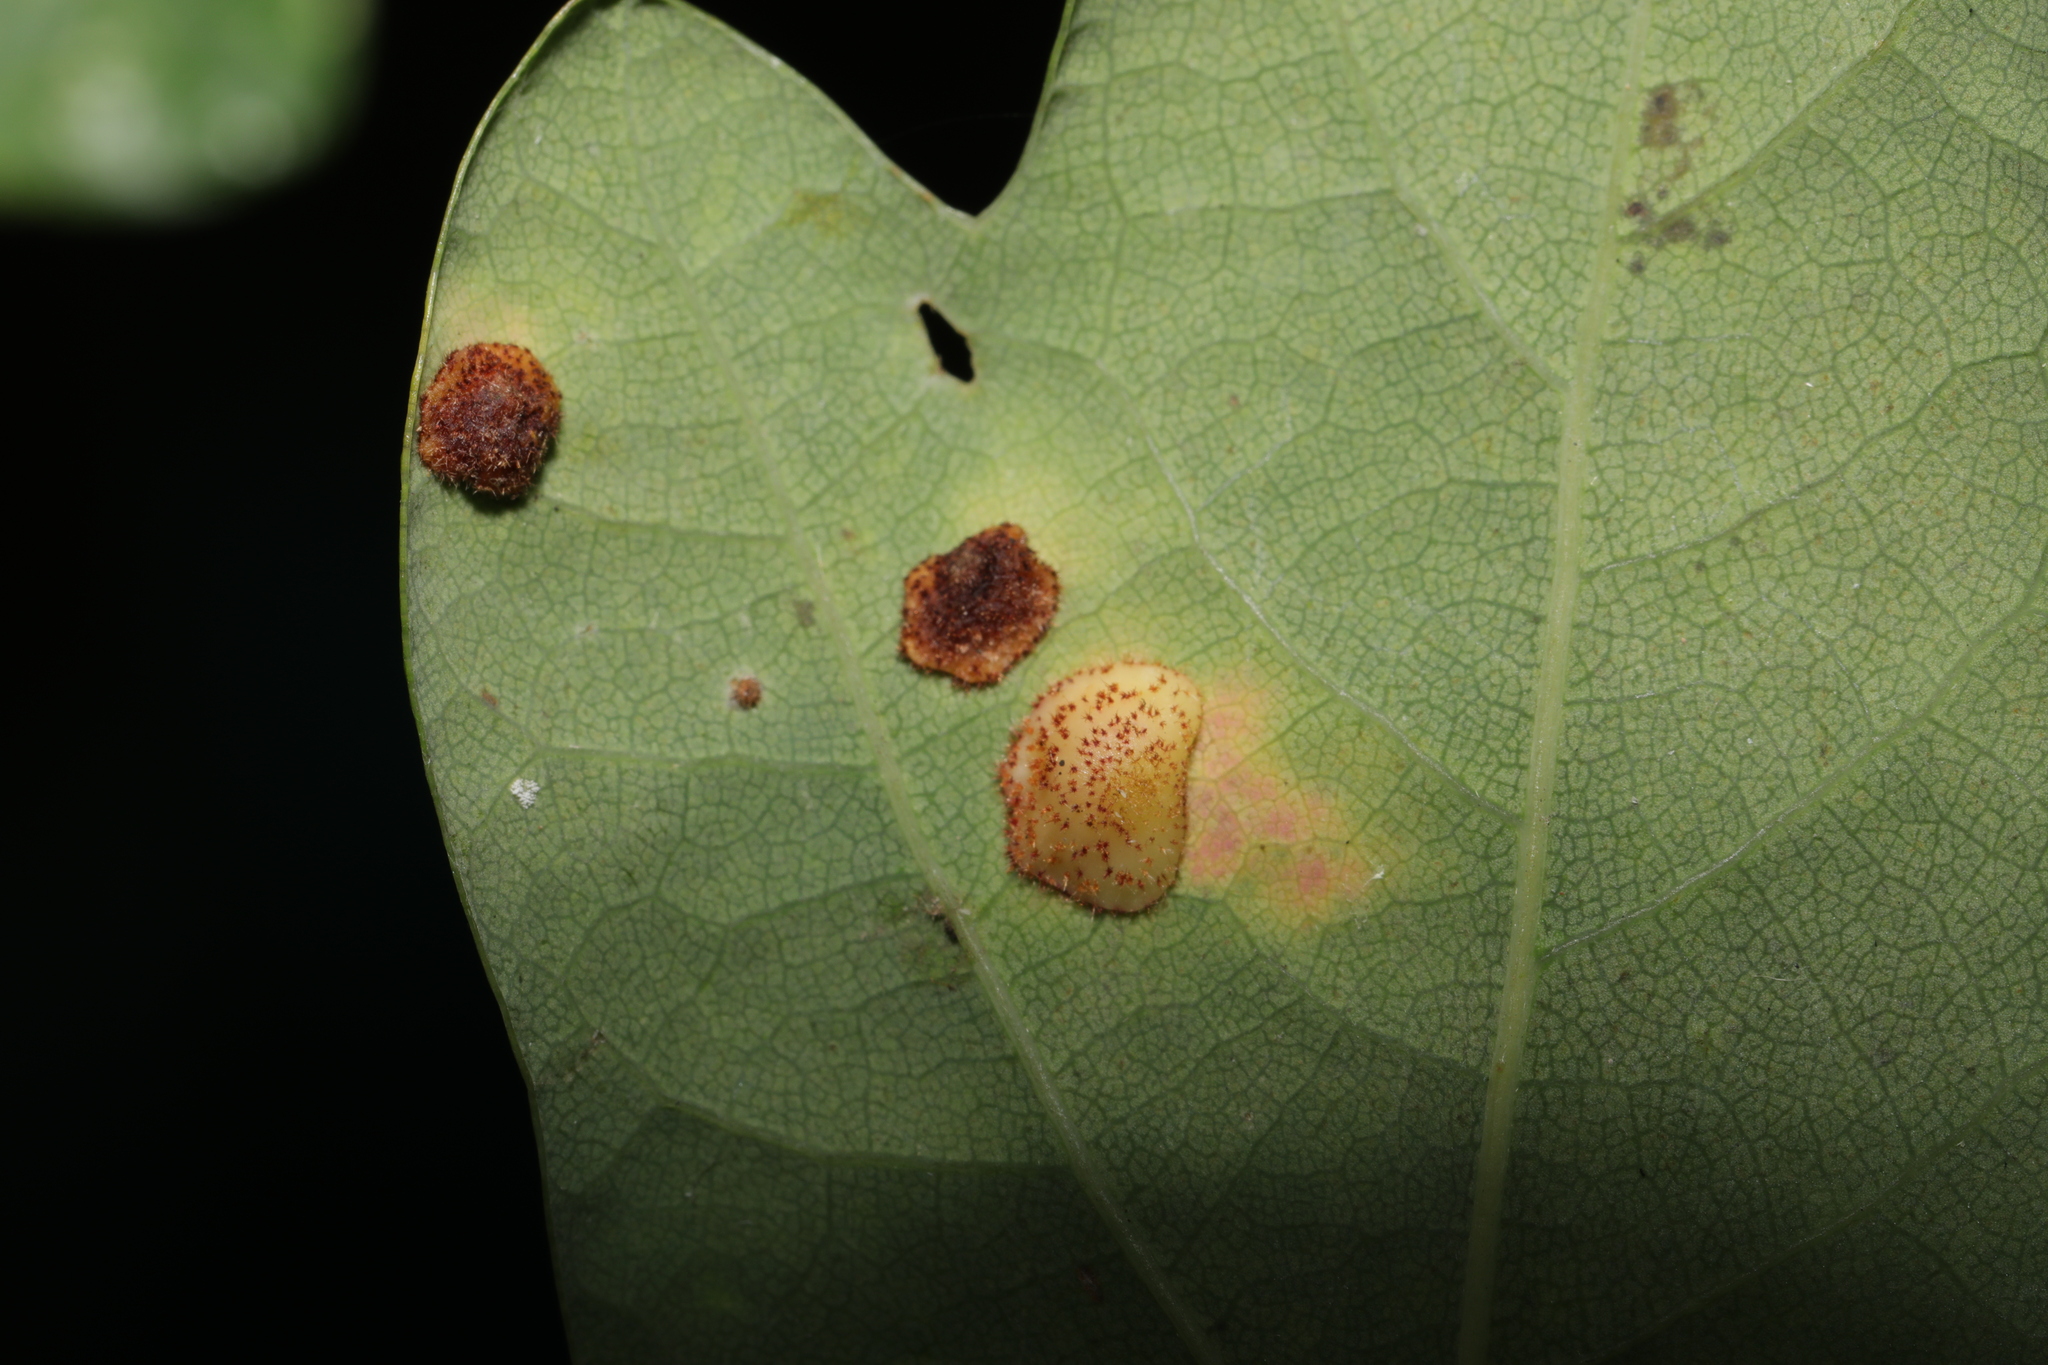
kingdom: Animalia
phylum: Arthropoda
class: Insecta
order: Hymenoptera
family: Cynipidae
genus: Neuroterus
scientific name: Neuroterus quercusbaccarum
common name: Common spangle gall
